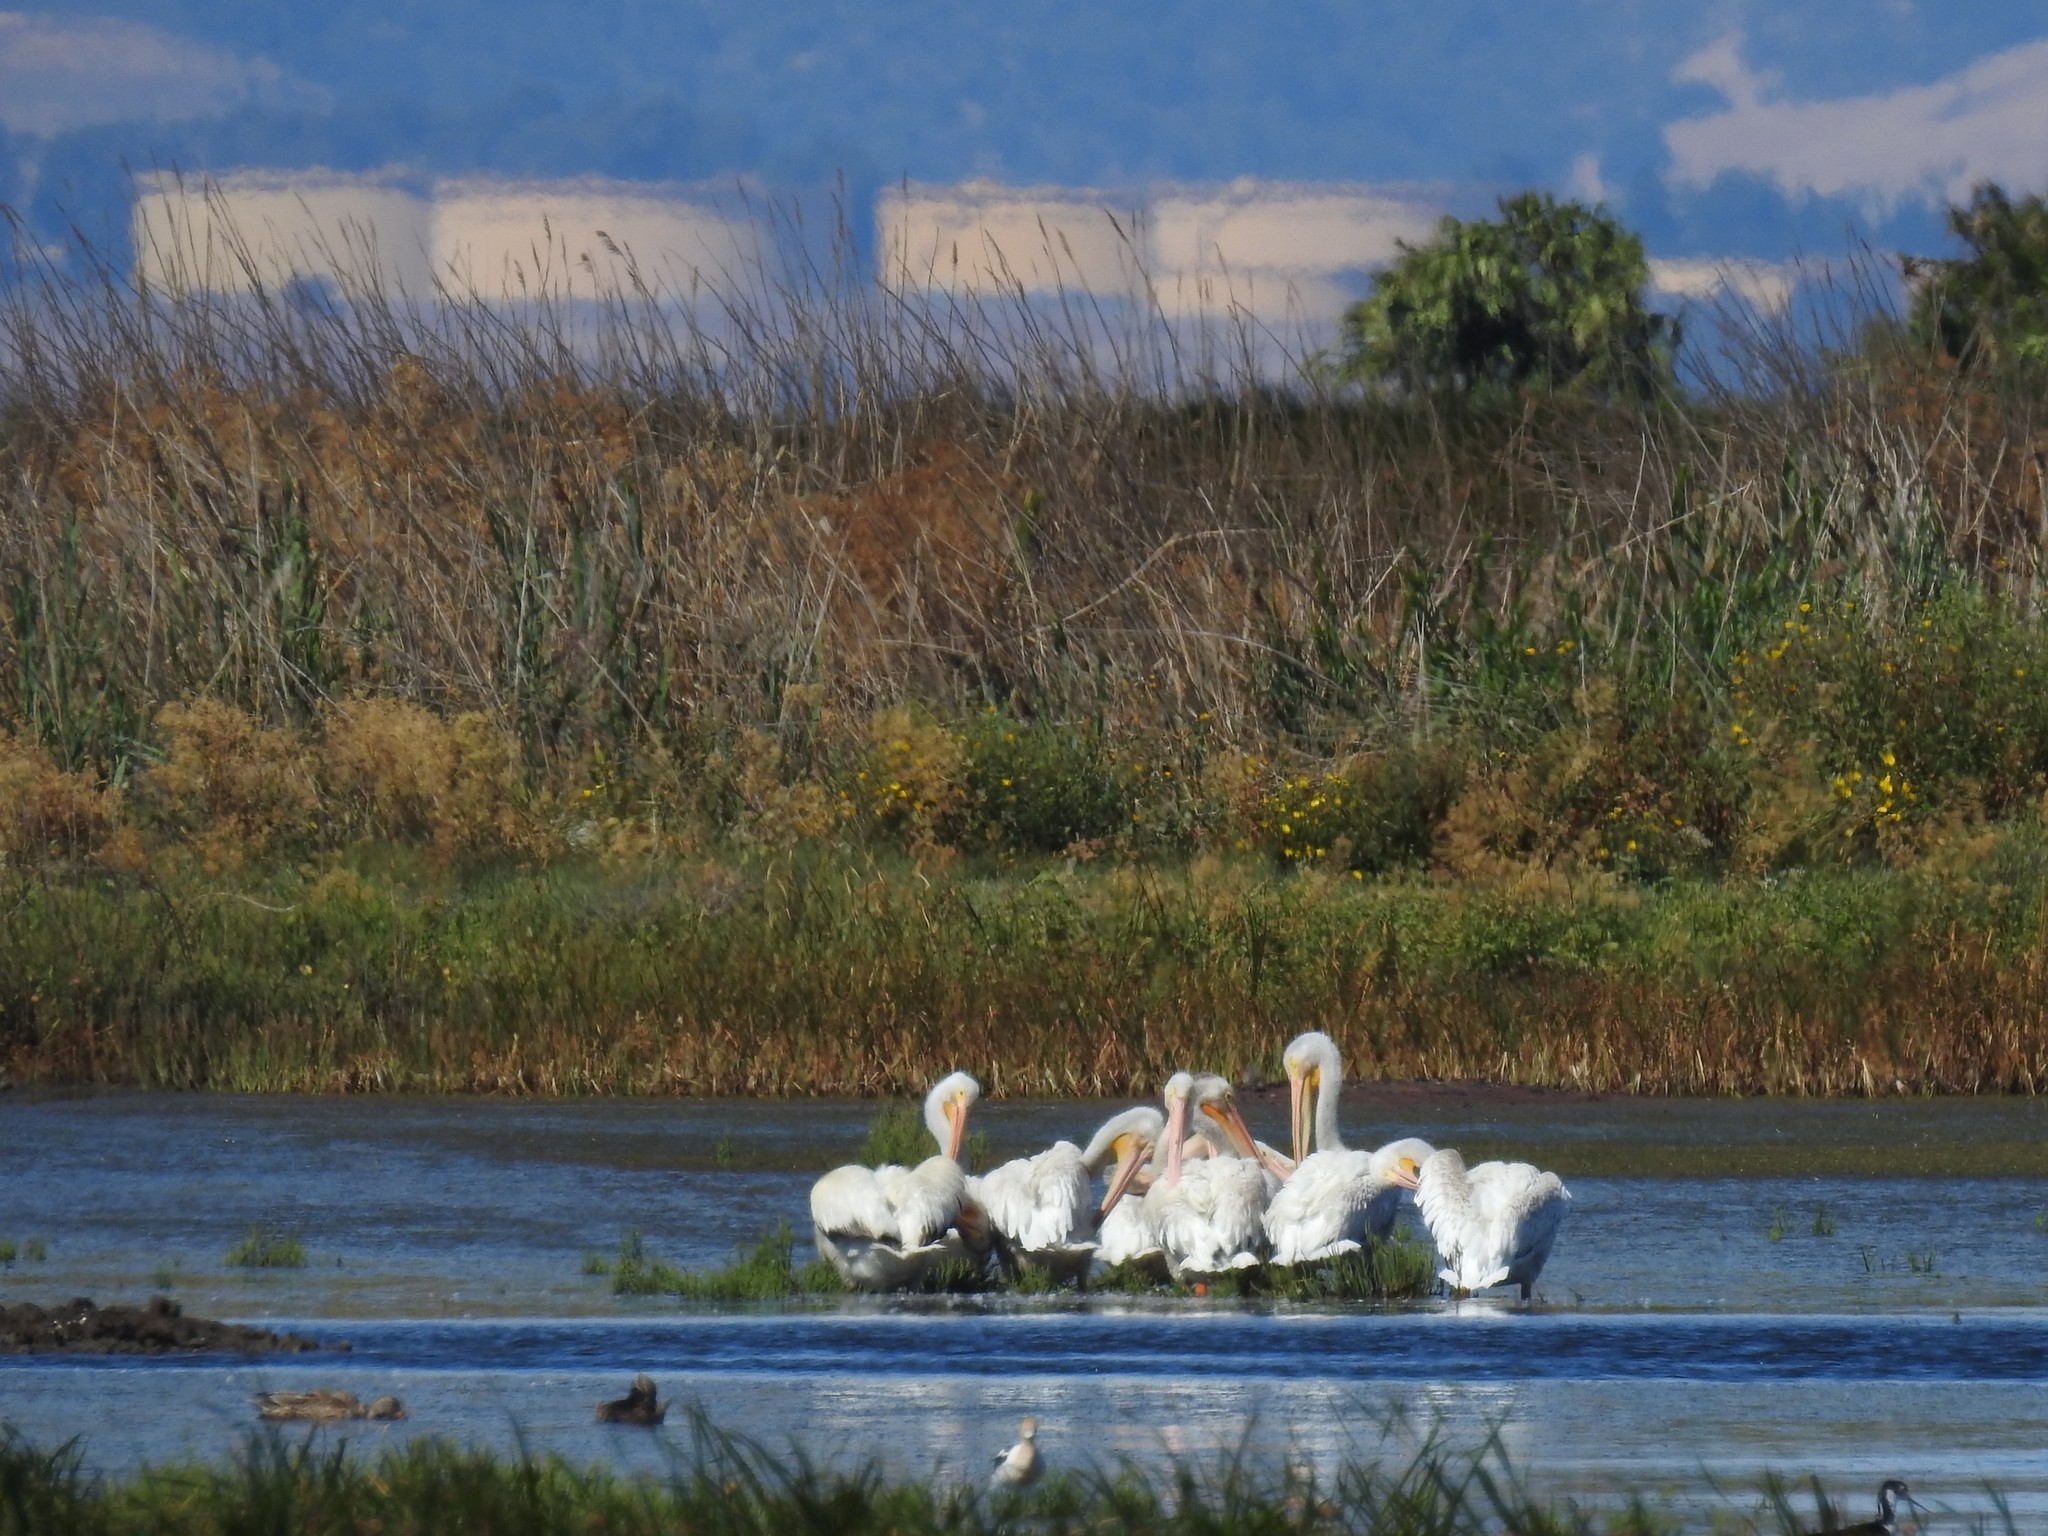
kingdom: Animalia
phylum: Chordata
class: Aves
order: Pelecaniformes
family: Pelecanidae
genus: Pelecanus
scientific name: Pelecanus erythrorhynchos
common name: American white pelican
